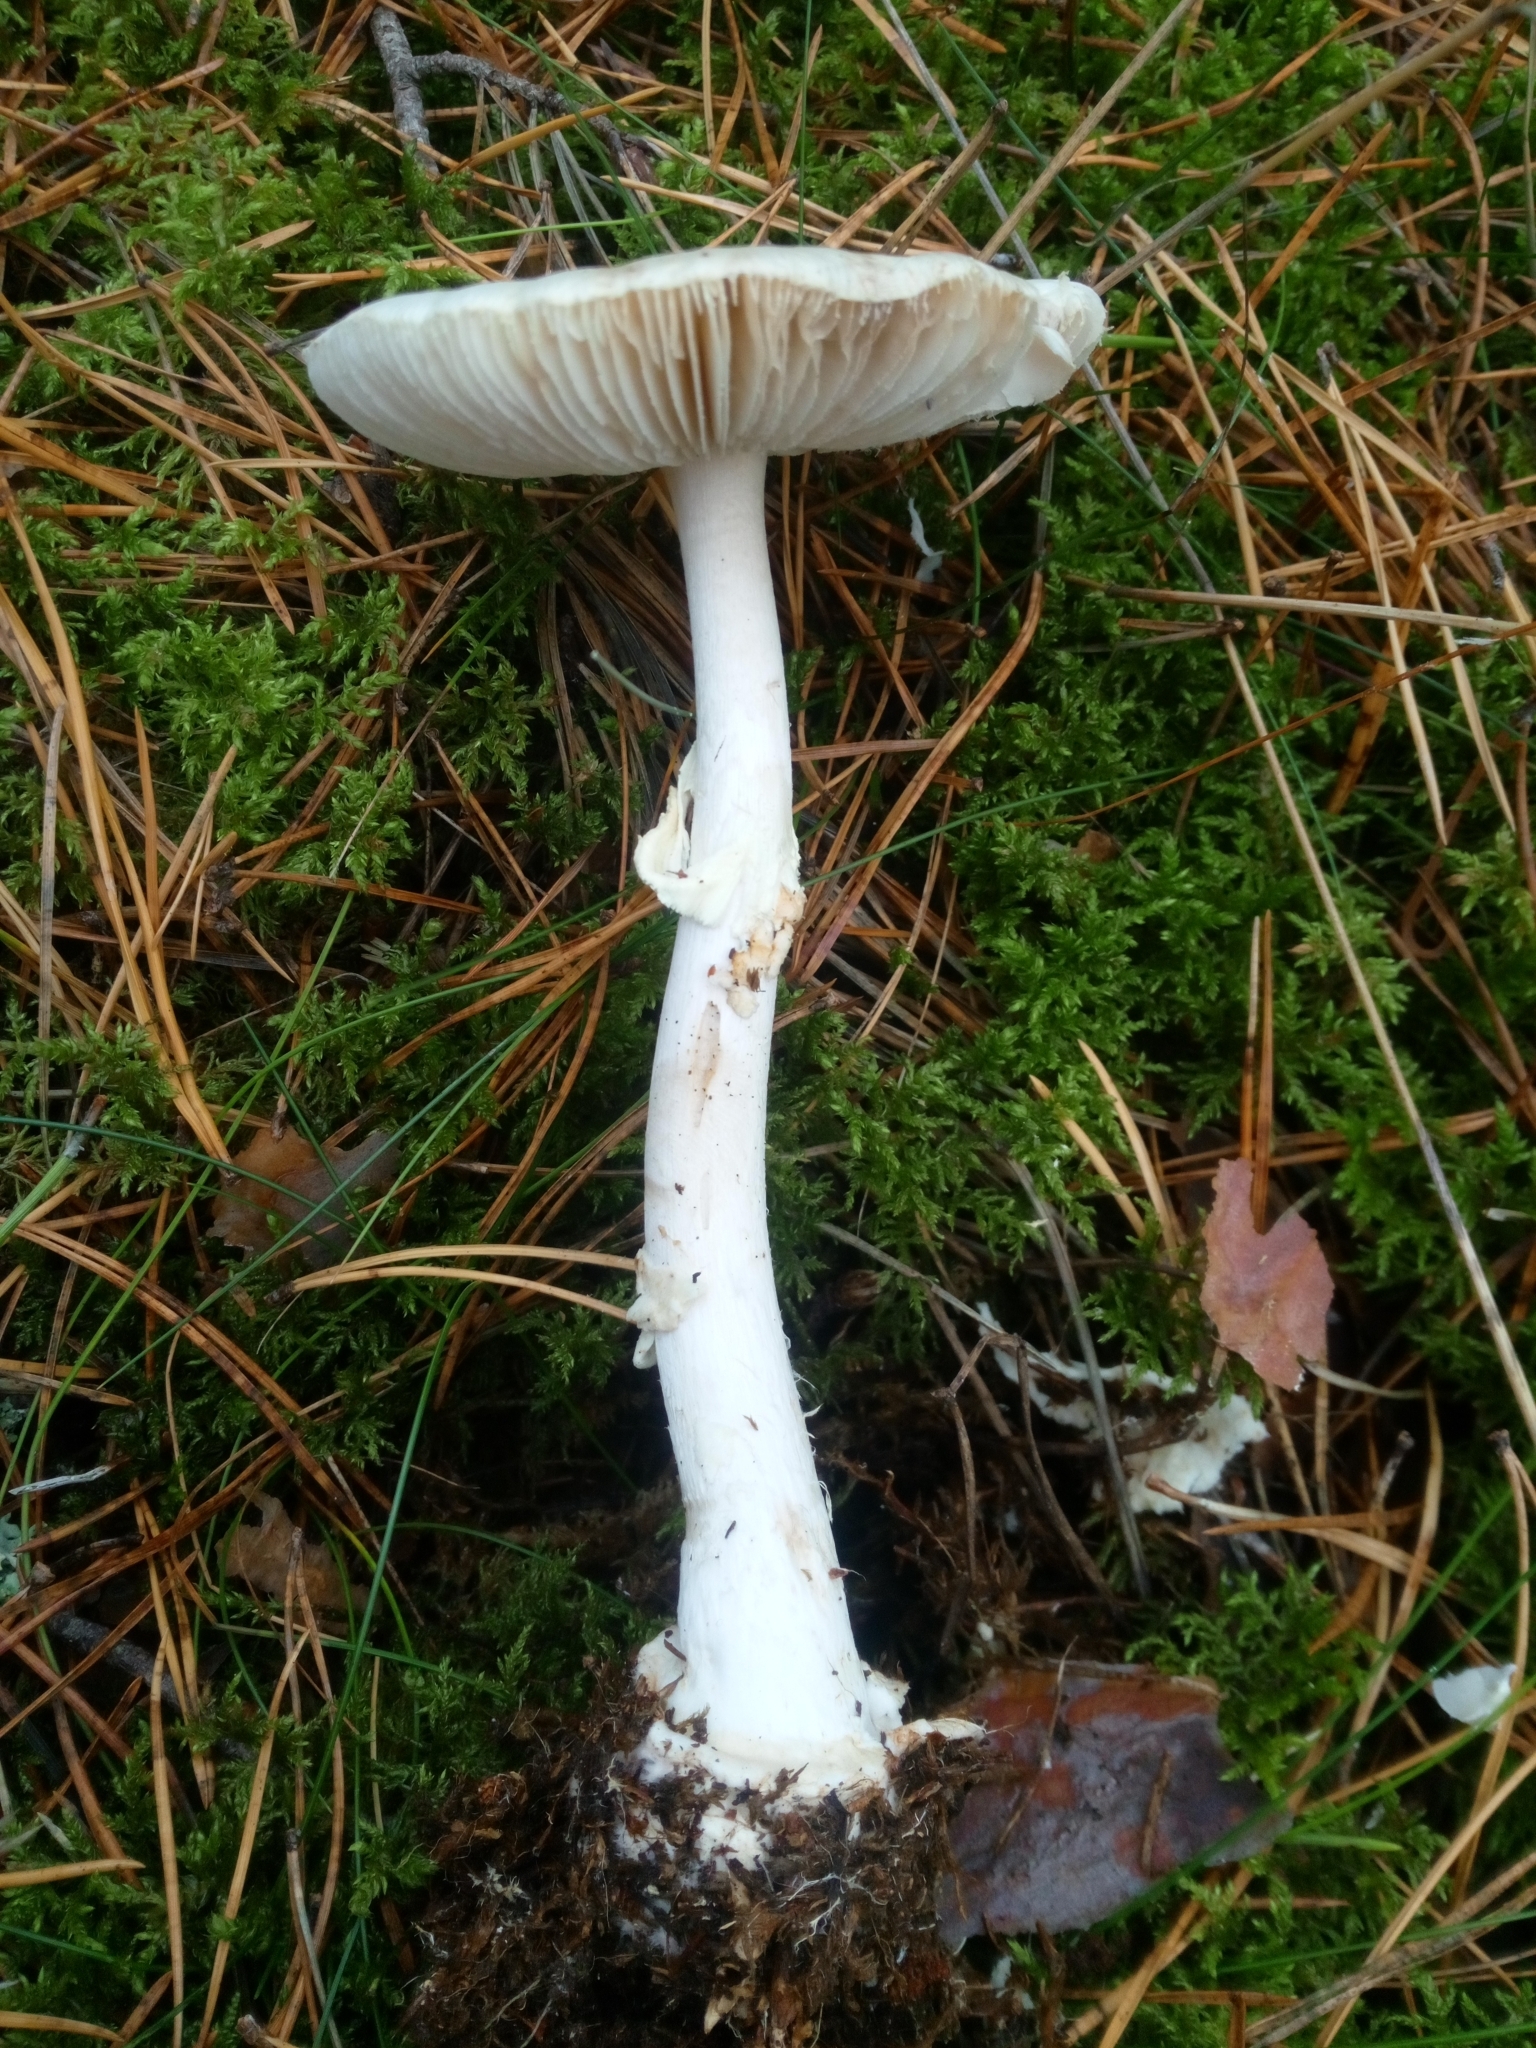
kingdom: Fungi
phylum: Basidiomycota
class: Agaricomycetes
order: Agaricales
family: Amanitaceae
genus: Amanita
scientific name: Amanita citrina
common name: False death-cap
